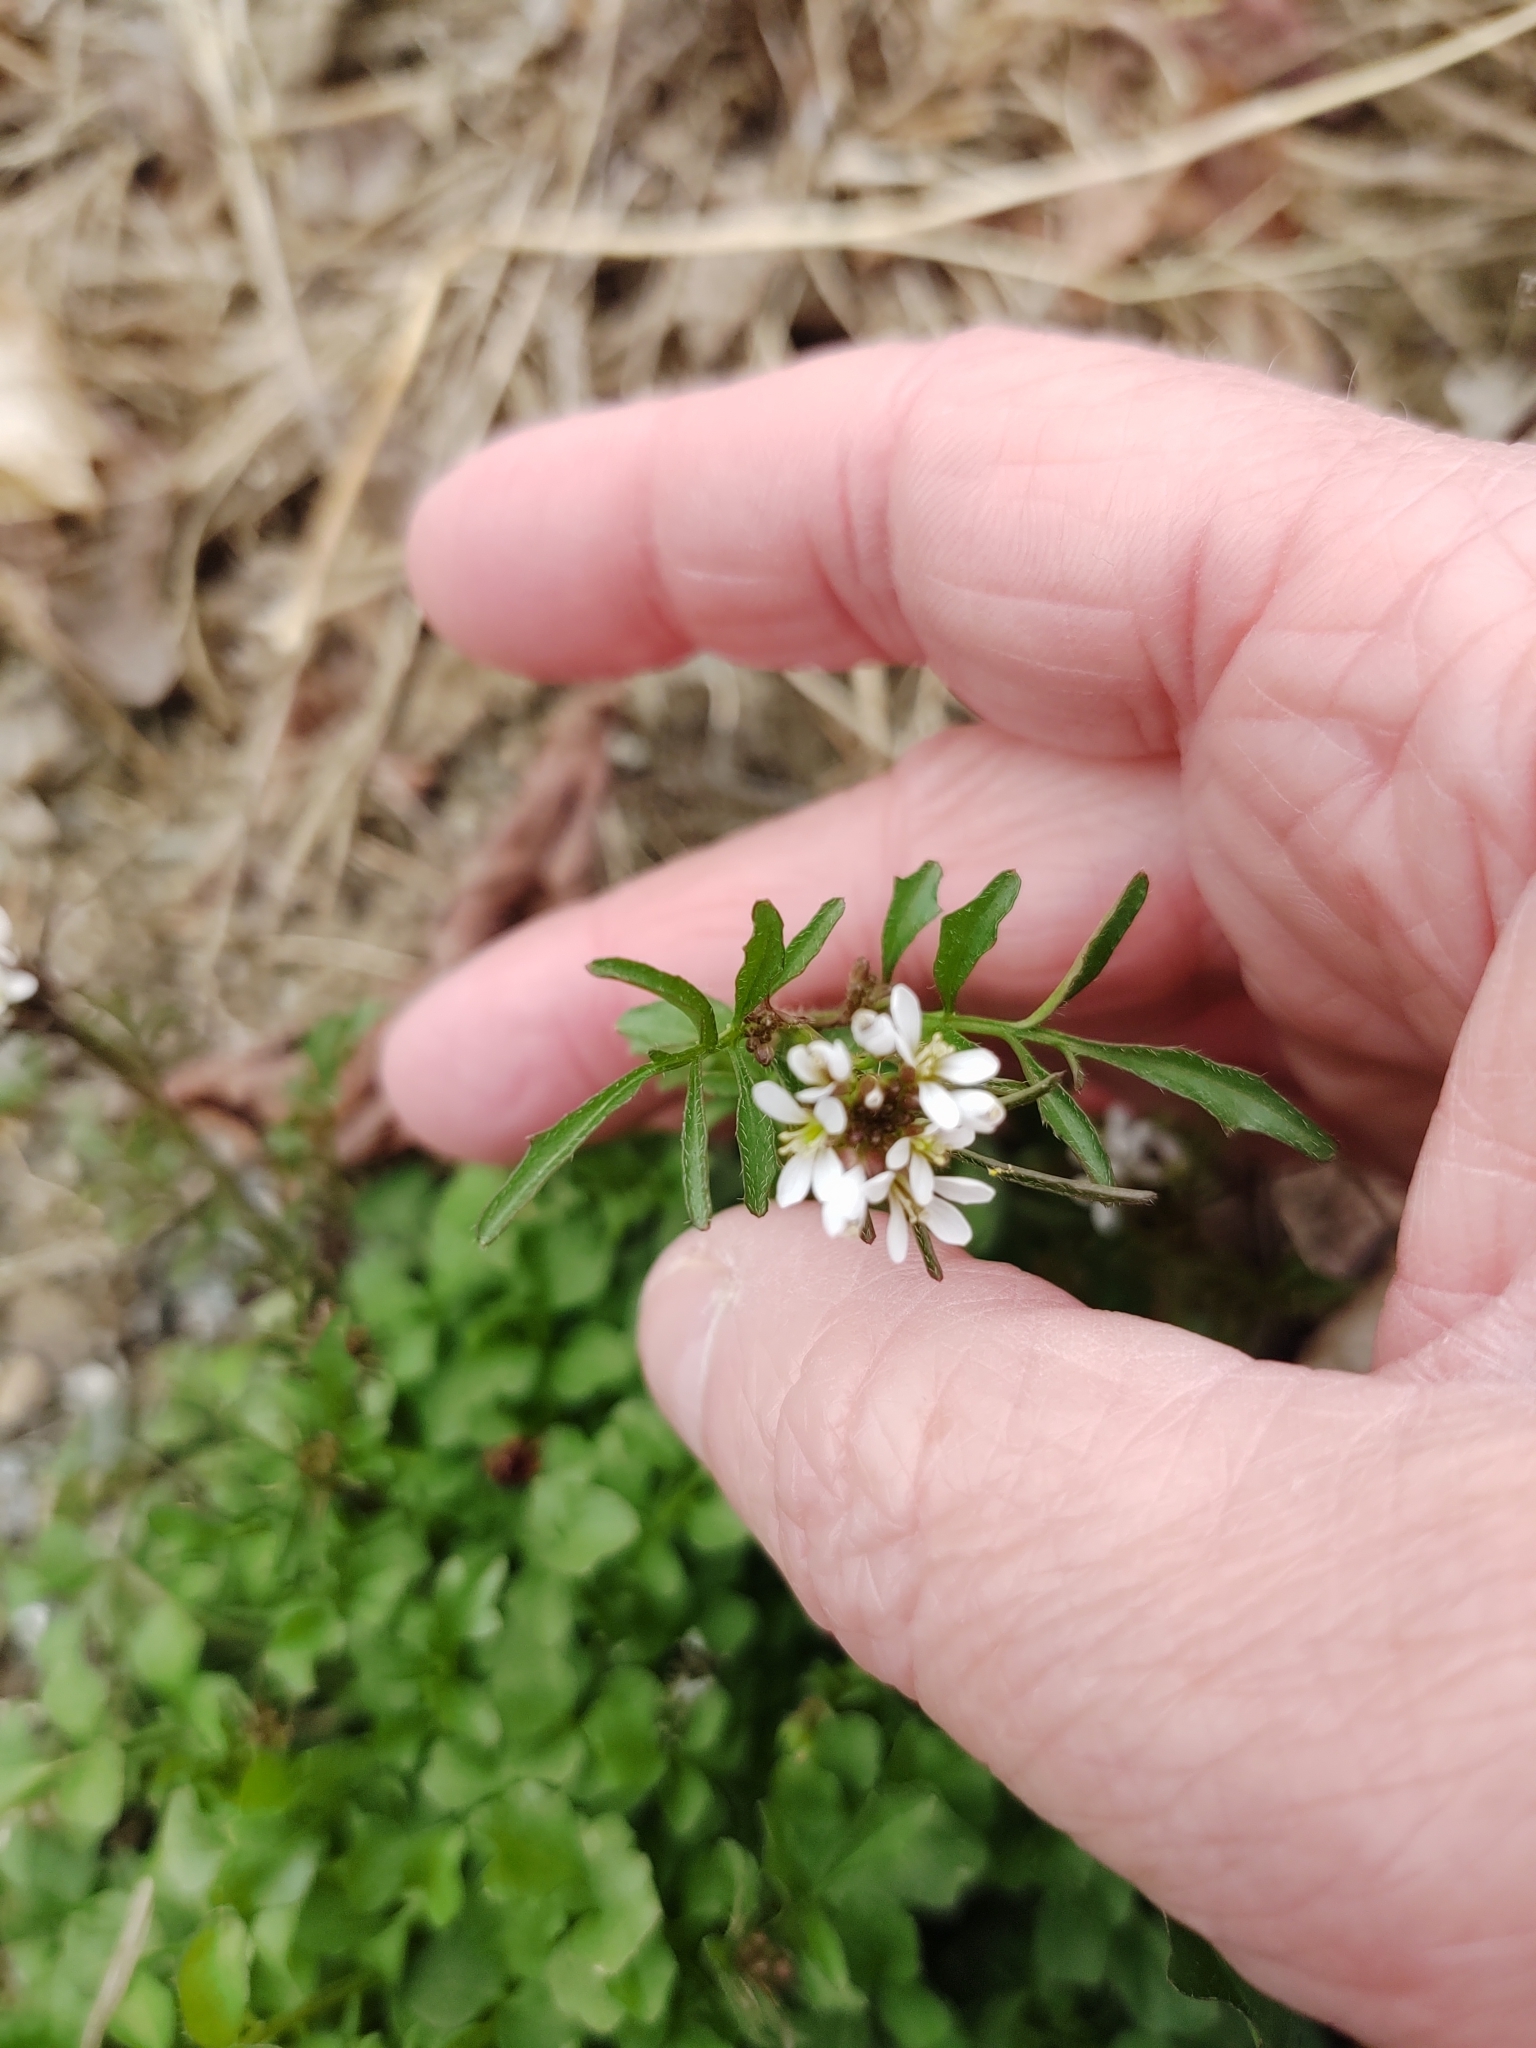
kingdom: Plantae
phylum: Tracheophyta
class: Magnoliopsida
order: Brassicales
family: Brassicaceae
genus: Cardamine
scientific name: Cardamine hirsuta
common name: Hairy bittercress
